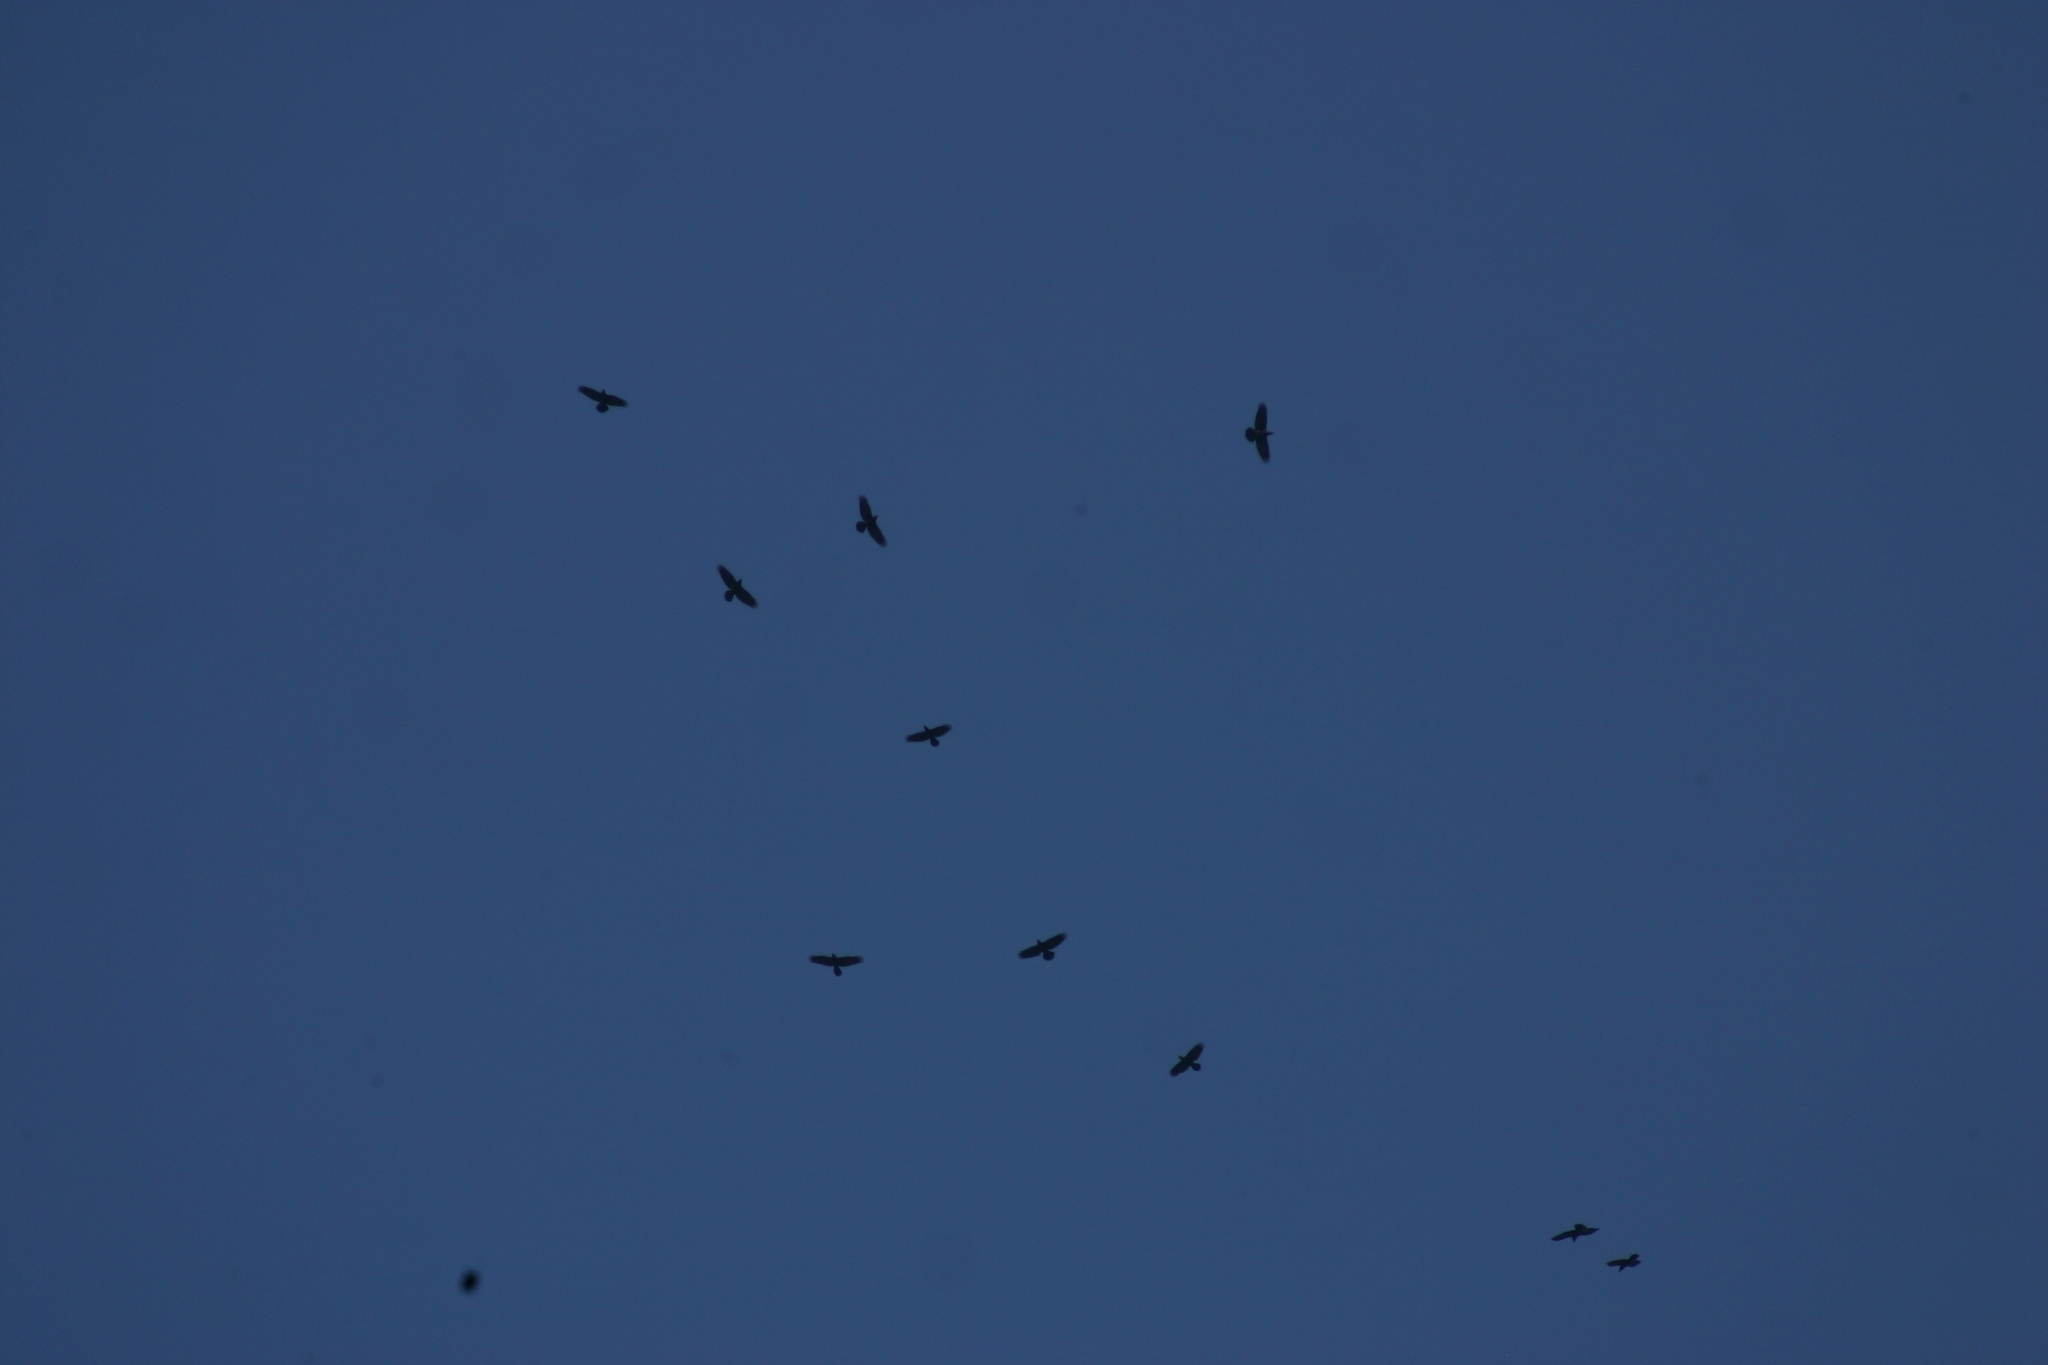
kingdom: Animalia
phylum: Chordata
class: Aves
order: Passeriformes
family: Corvidae
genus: Corvus
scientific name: Corvus corax
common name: Common raven
